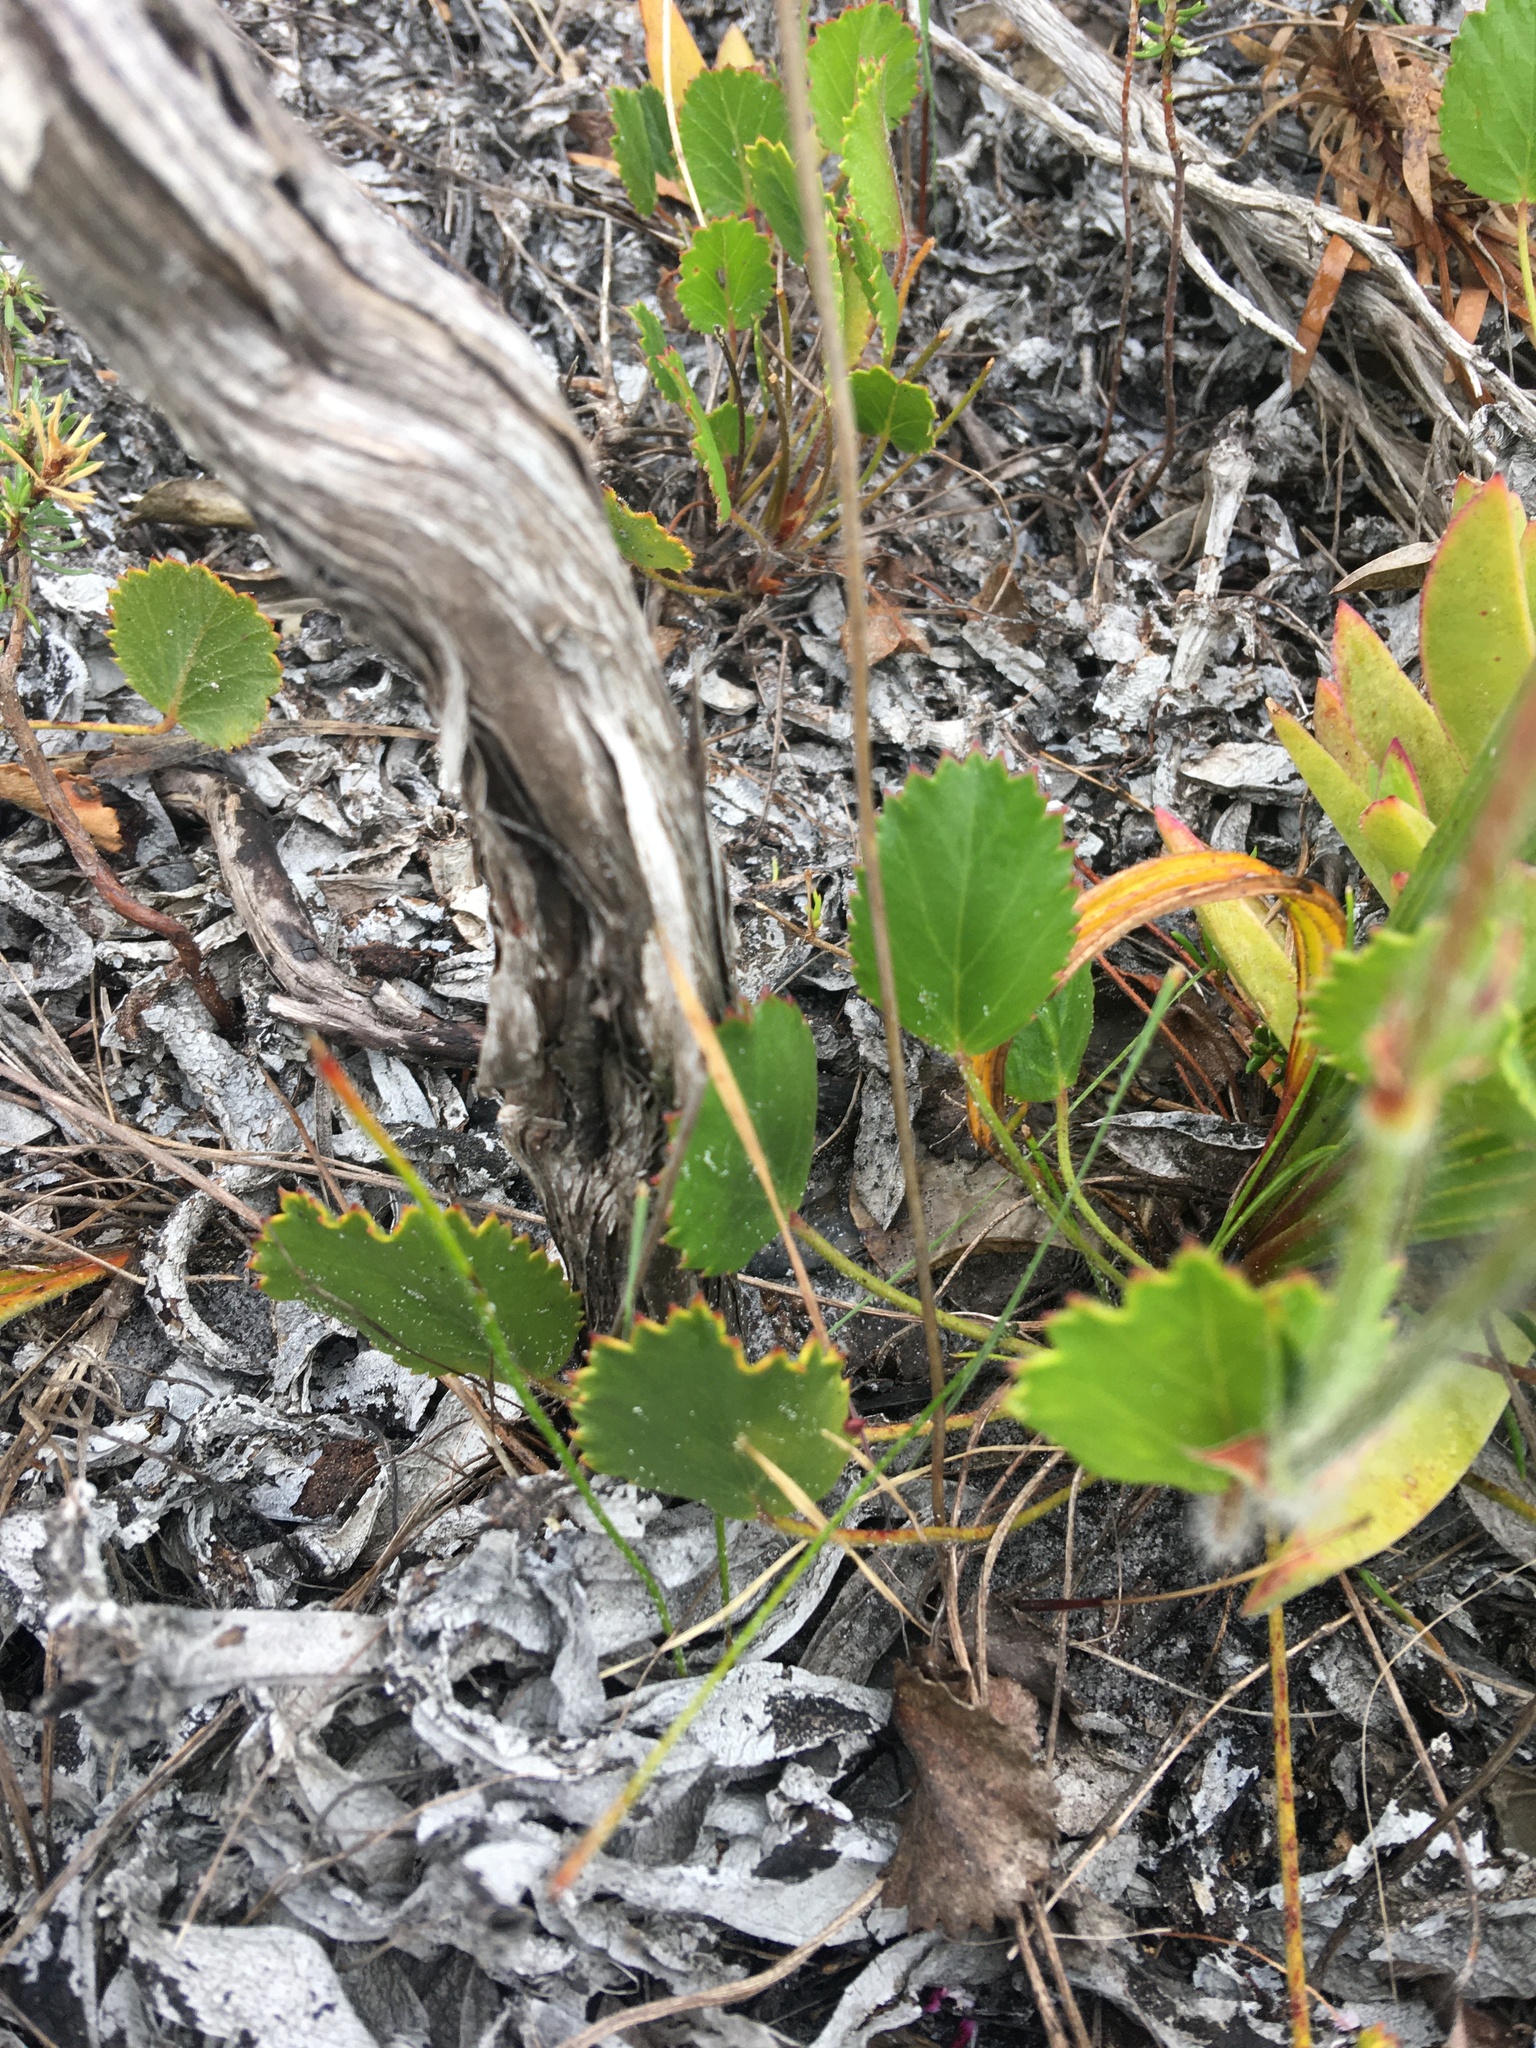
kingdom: Plantae
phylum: Tracheophyta
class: Magnoliopsida
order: Geraniales
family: Geraniaceae
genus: Pelargonium
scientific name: Pelargonium elegans
